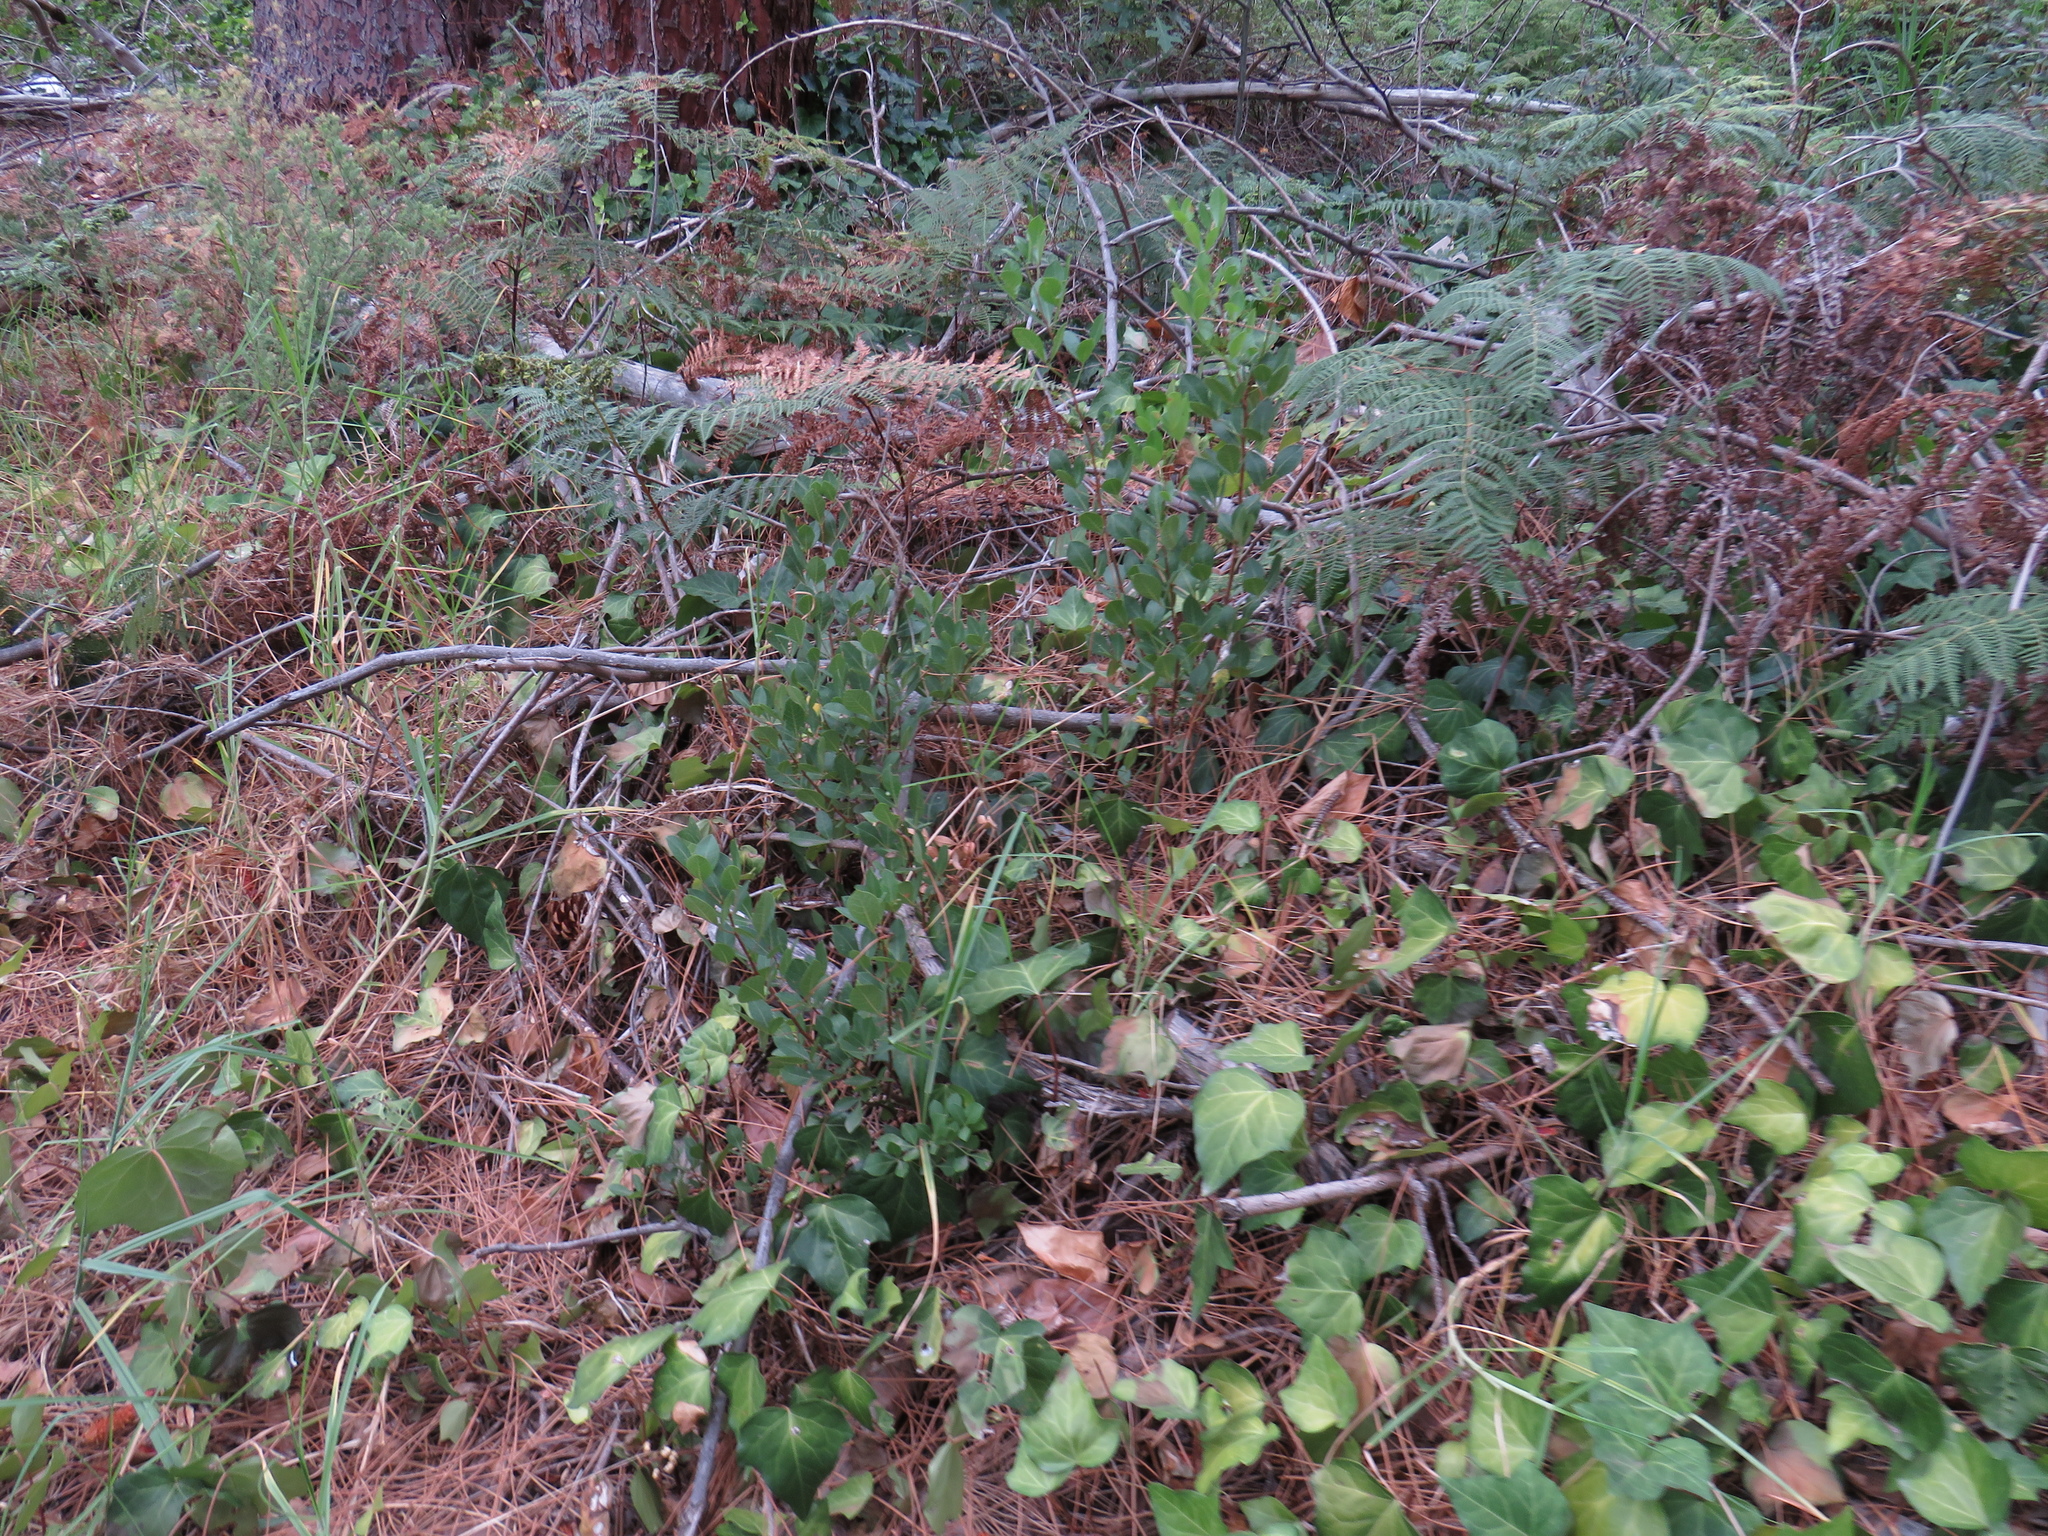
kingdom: Plantae
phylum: Tracheophyta
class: Magnoliopsida
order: Sapindales
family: Anacardiaceae
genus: Searsia
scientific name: Searsia laevigata
